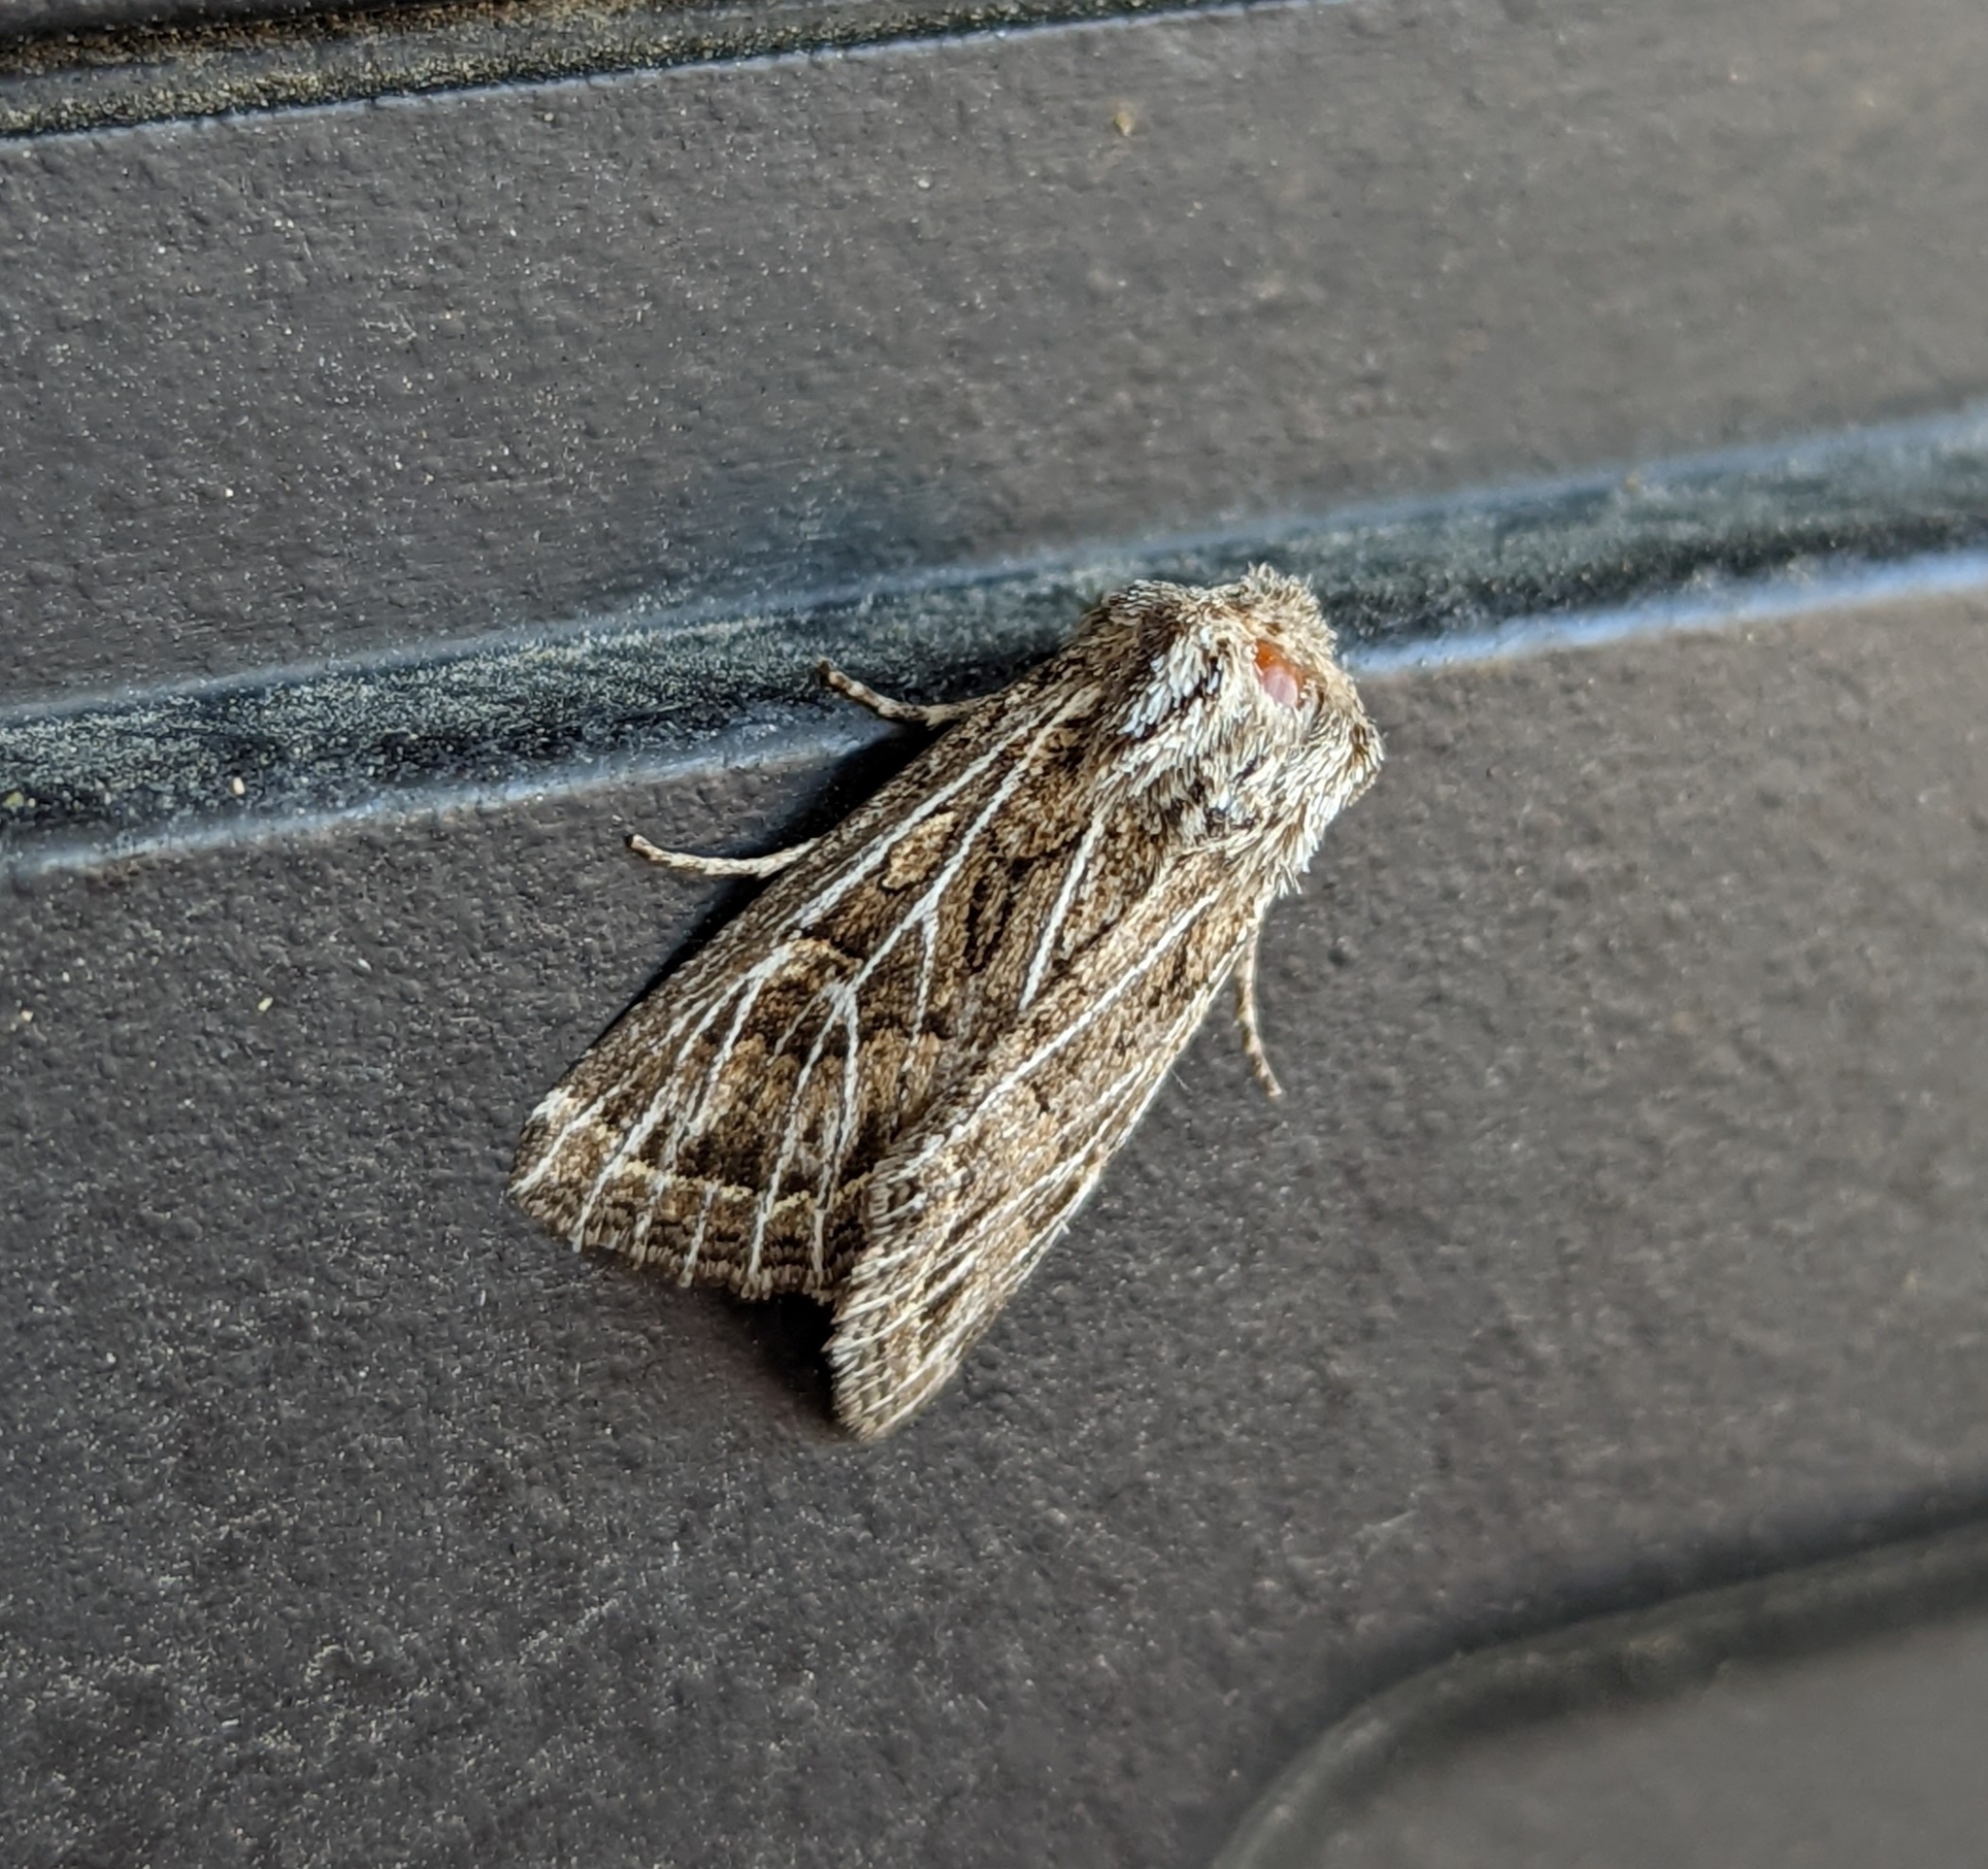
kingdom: Animalia
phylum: Arthropoda
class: Insecta
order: Lepidoptera
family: Noctuidae
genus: Apamea
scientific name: Apamea niveivenosa
